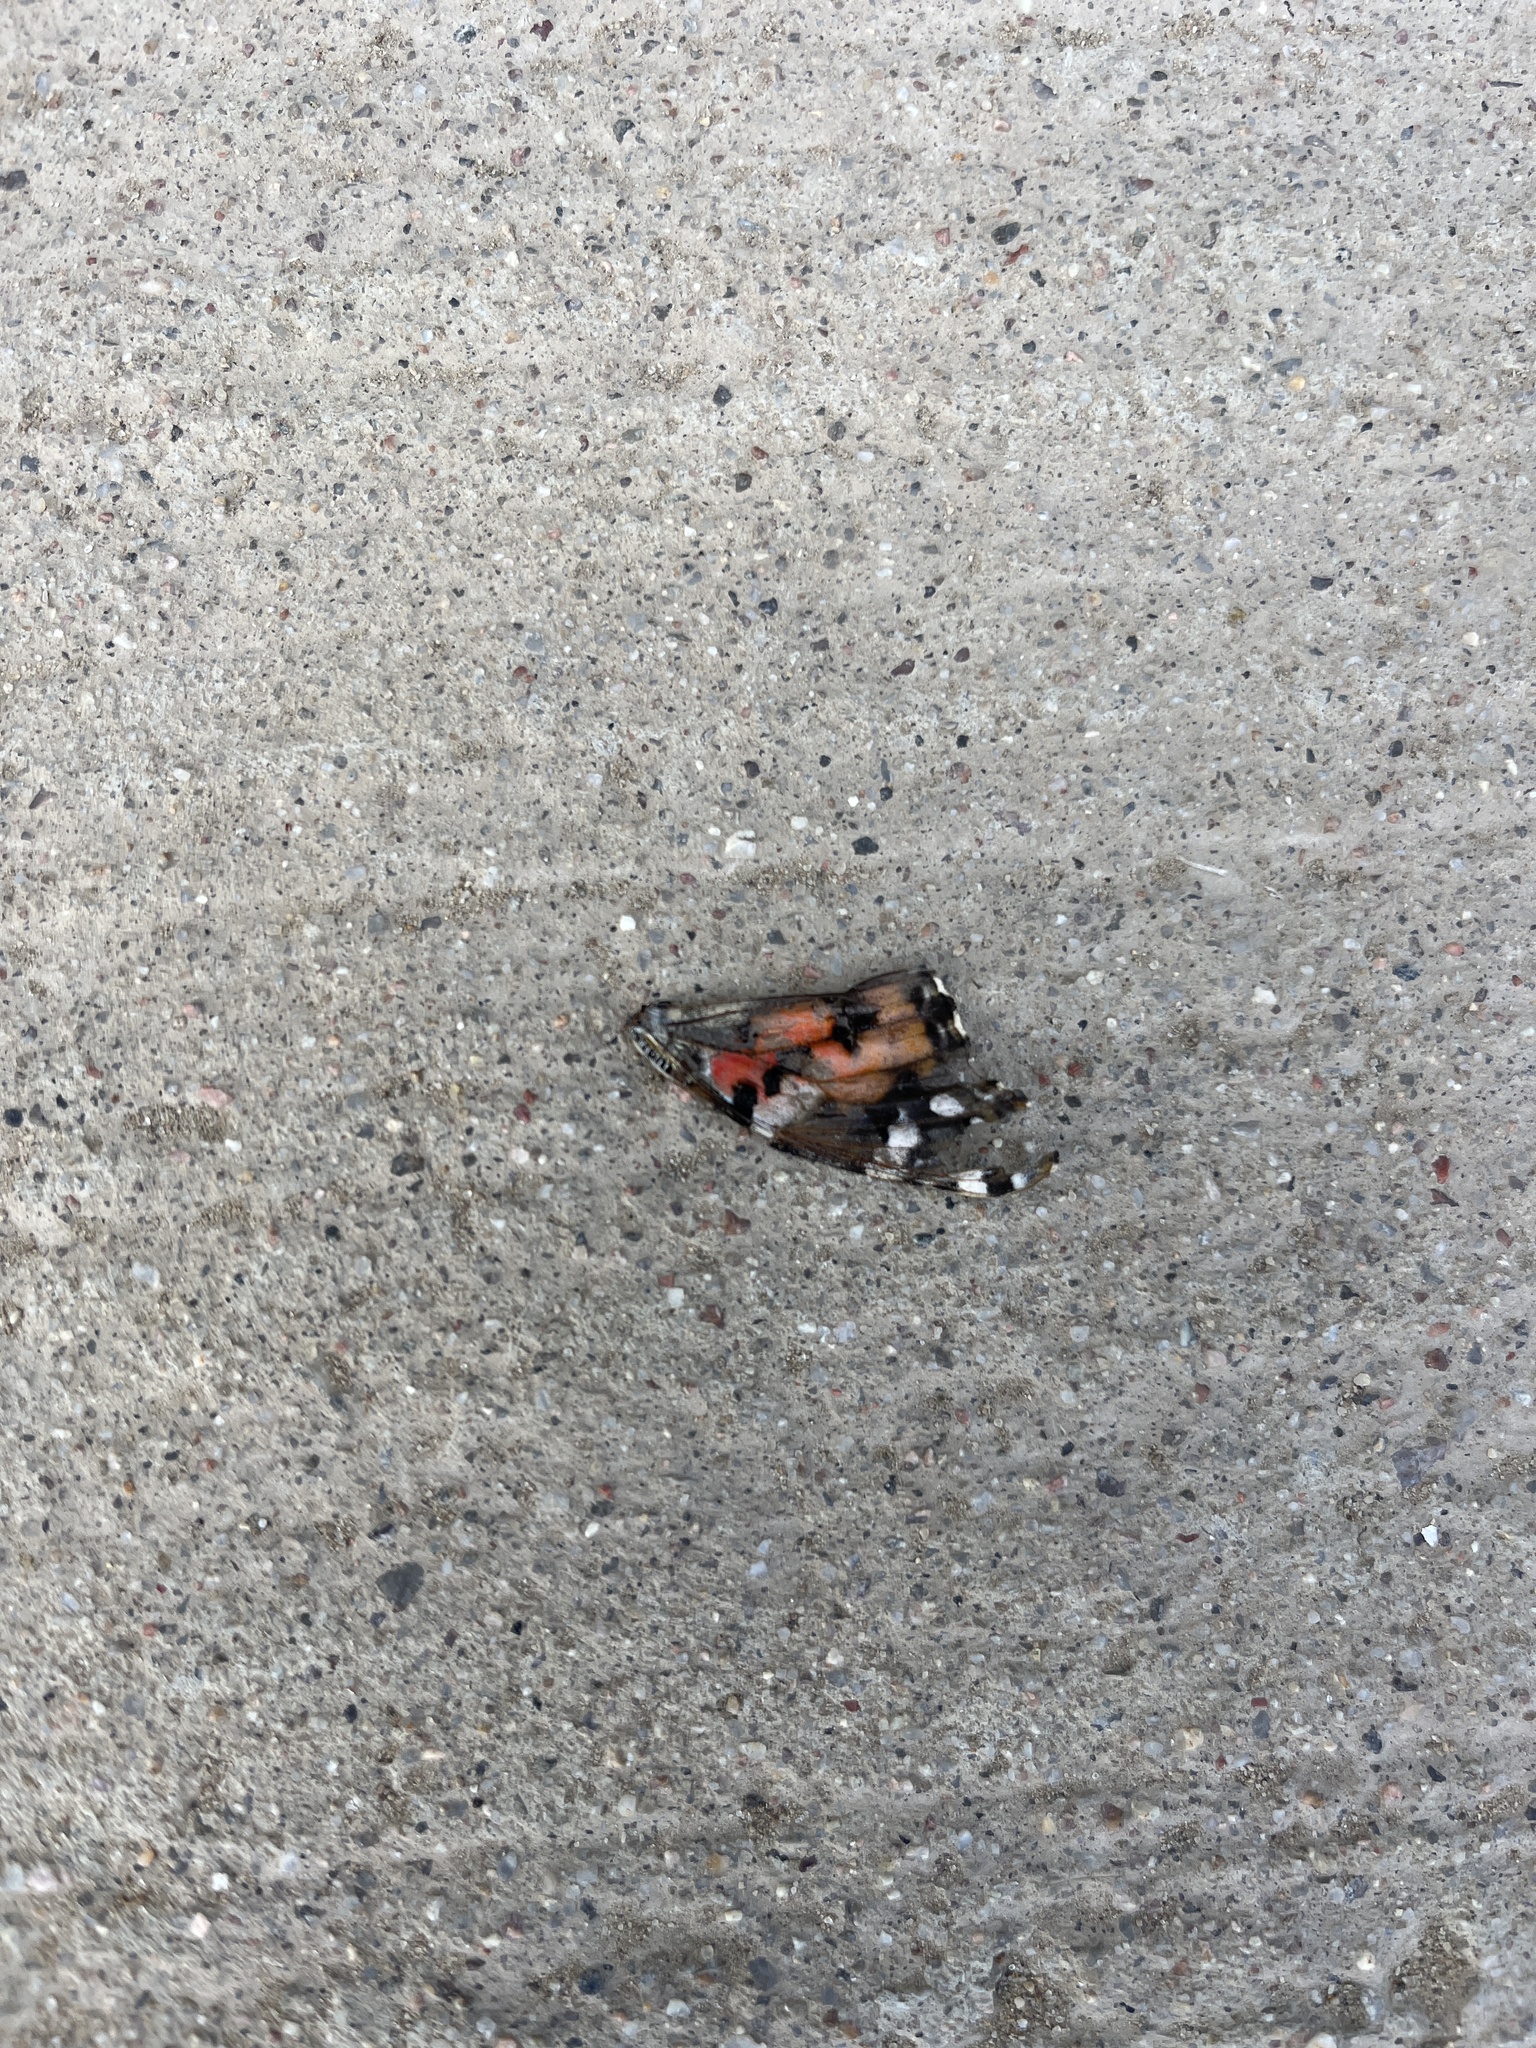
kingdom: Animalia
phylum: Arthropoda
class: Insecta
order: Lepidoptera
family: Nymphalidae
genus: Vanessa
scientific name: Vanessa cardui
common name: Painted lady
